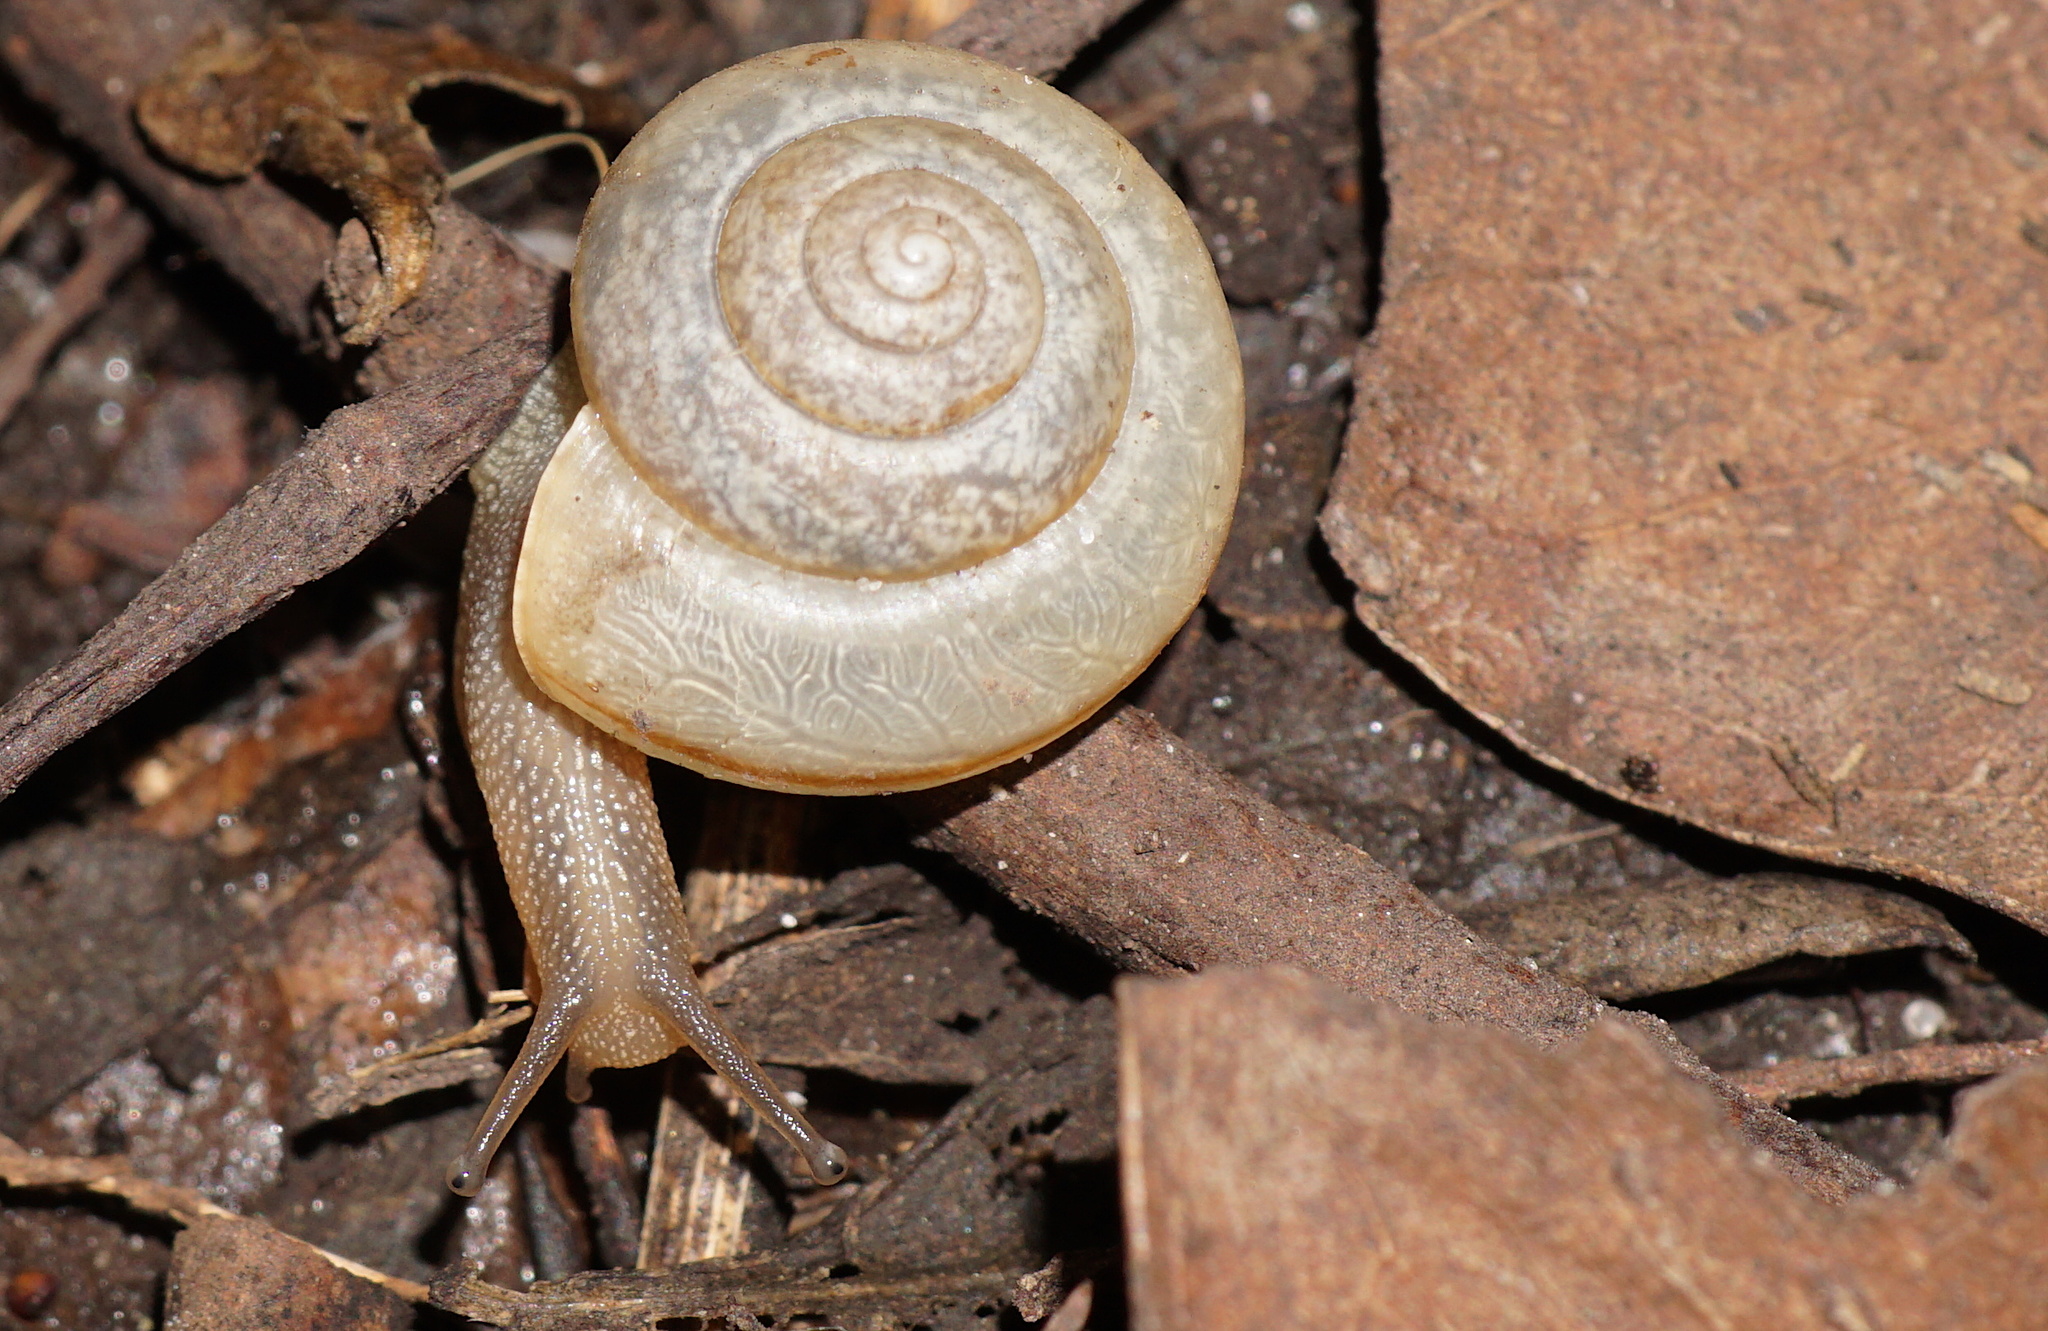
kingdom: Animalia
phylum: Mollusca
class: Gastropoda
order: Stylommatophora
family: Camaenidae
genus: Bradybaena
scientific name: Bradybaena similaris
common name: Asian trampsnail
